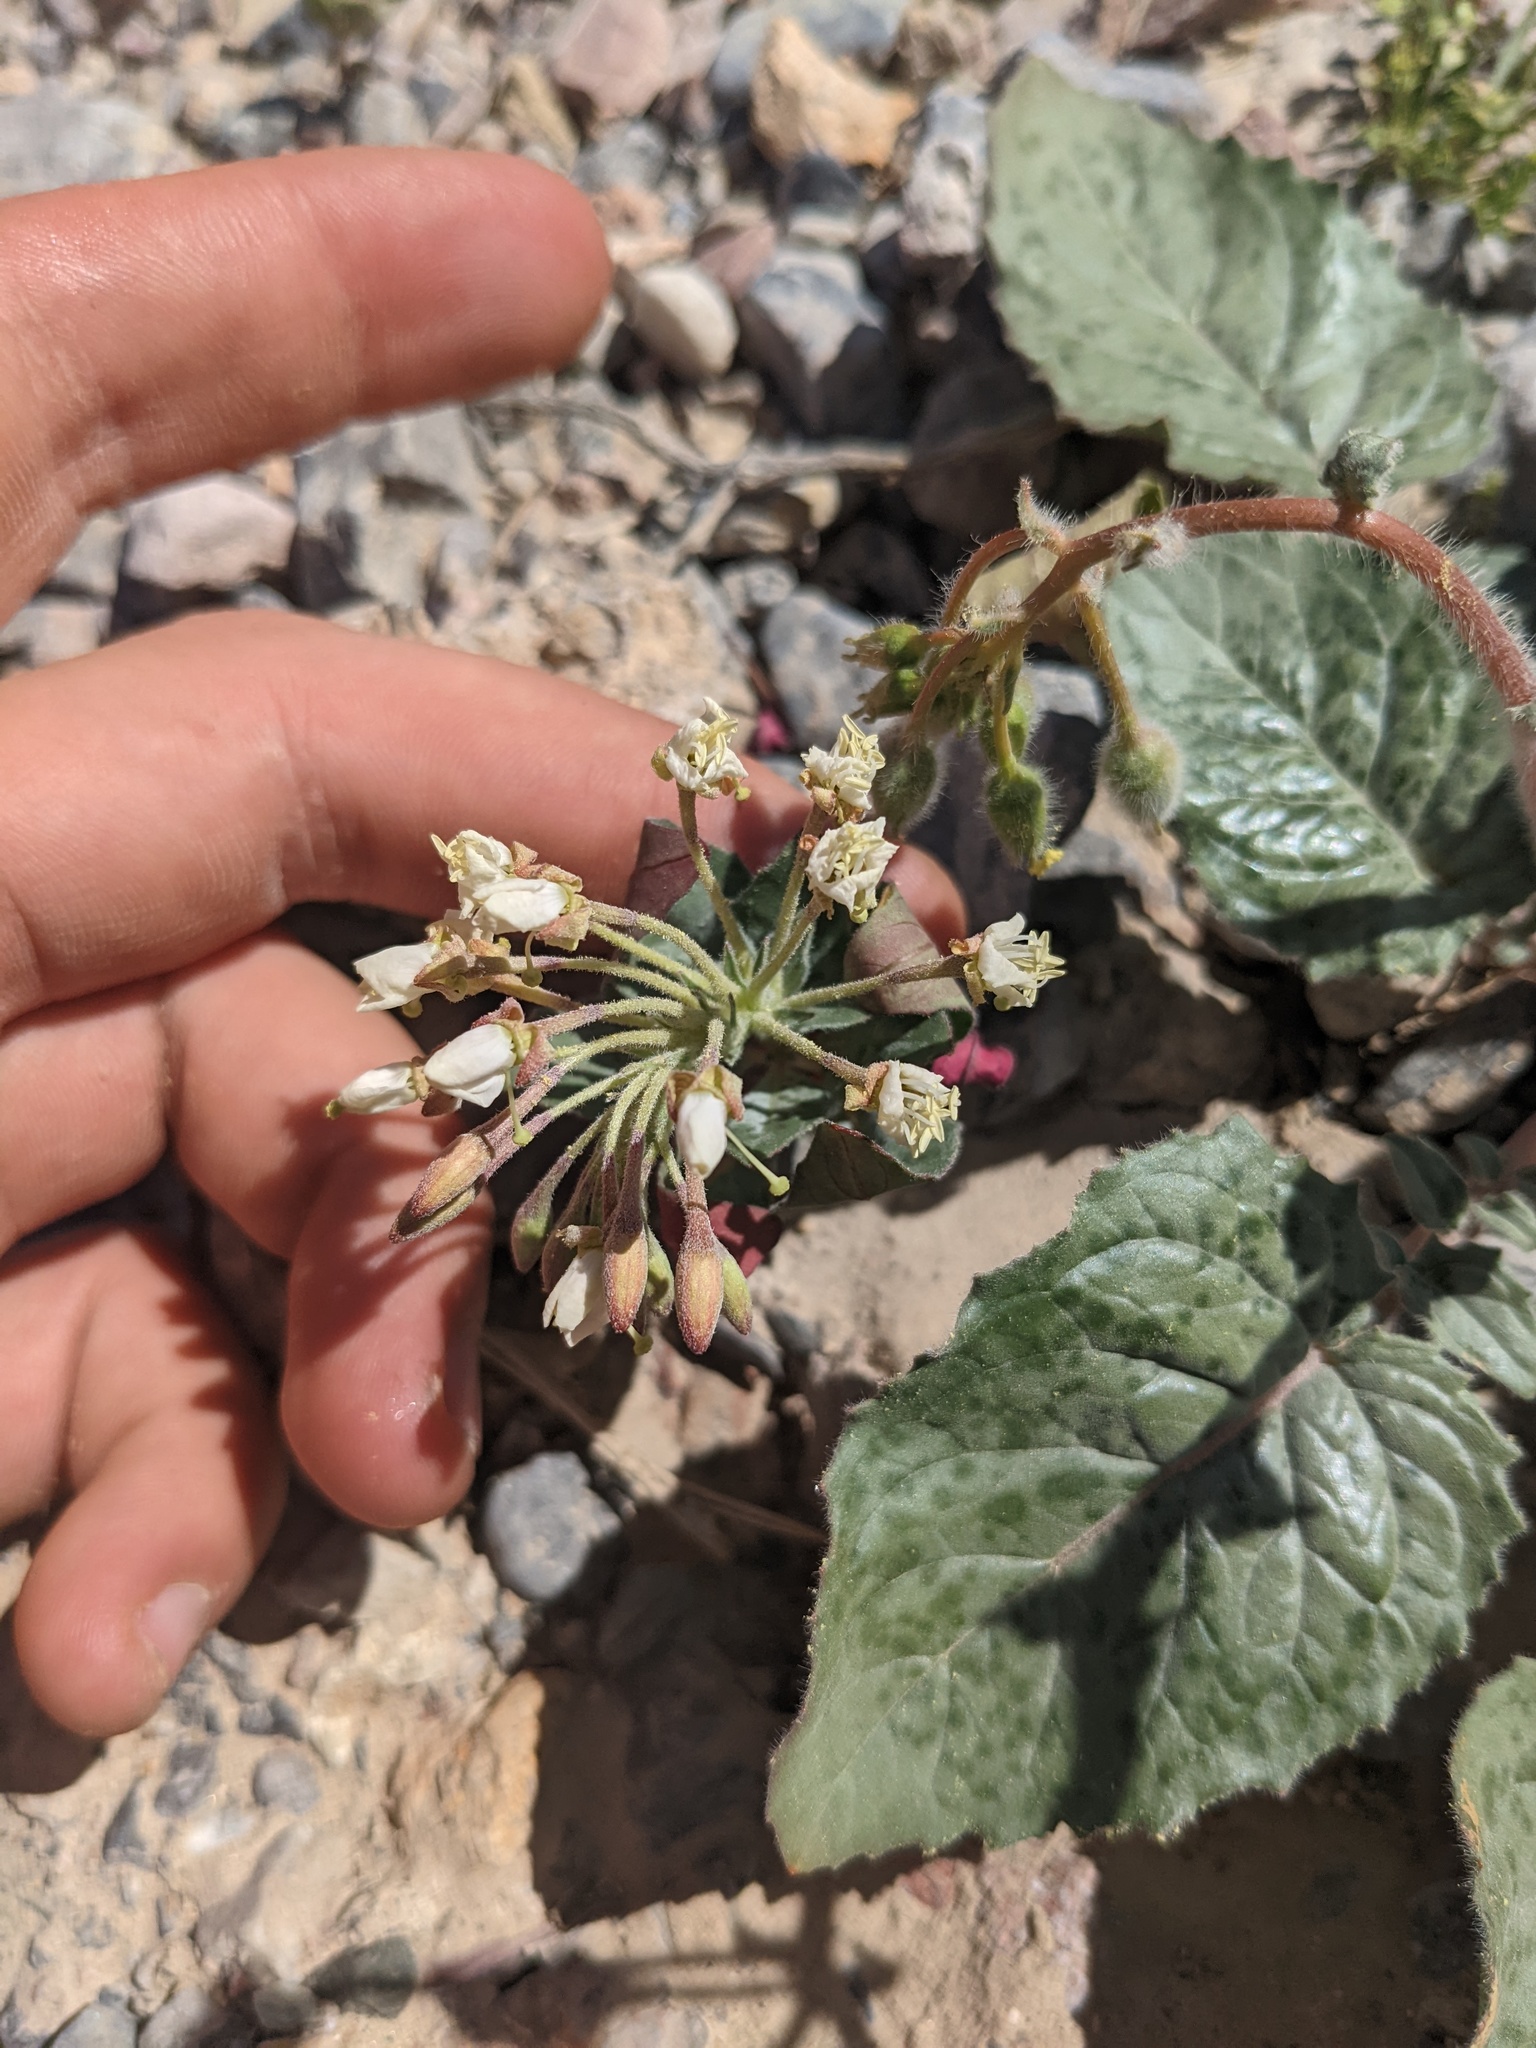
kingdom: Plantae
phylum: Tracheophyta
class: Magnoliopsida
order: Myrtales
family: Onagraceae
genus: Eremothera
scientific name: Eremothera boothii
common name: Booth's evening primrose
